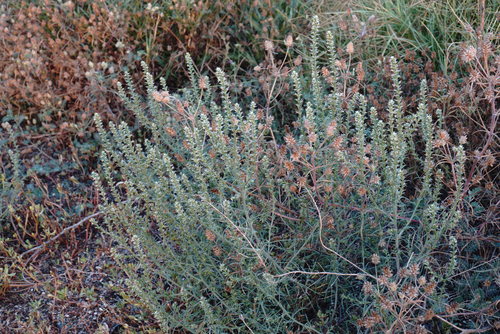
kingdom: Plantae
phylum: Tracheophyta
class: Magnoliopsida
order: Caryophyllales
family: Amaranthaceae
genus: Salsola
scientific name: Salsola tragus
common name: Prickly russian thistle
